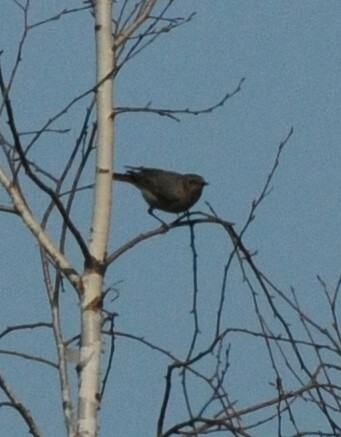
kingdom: Animalia
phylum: Chordata
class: Aves
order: Passeriformes
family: Muscicapidae
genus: Phoenicurus
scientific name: Phoenicurus ochruros
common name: Black redstart
